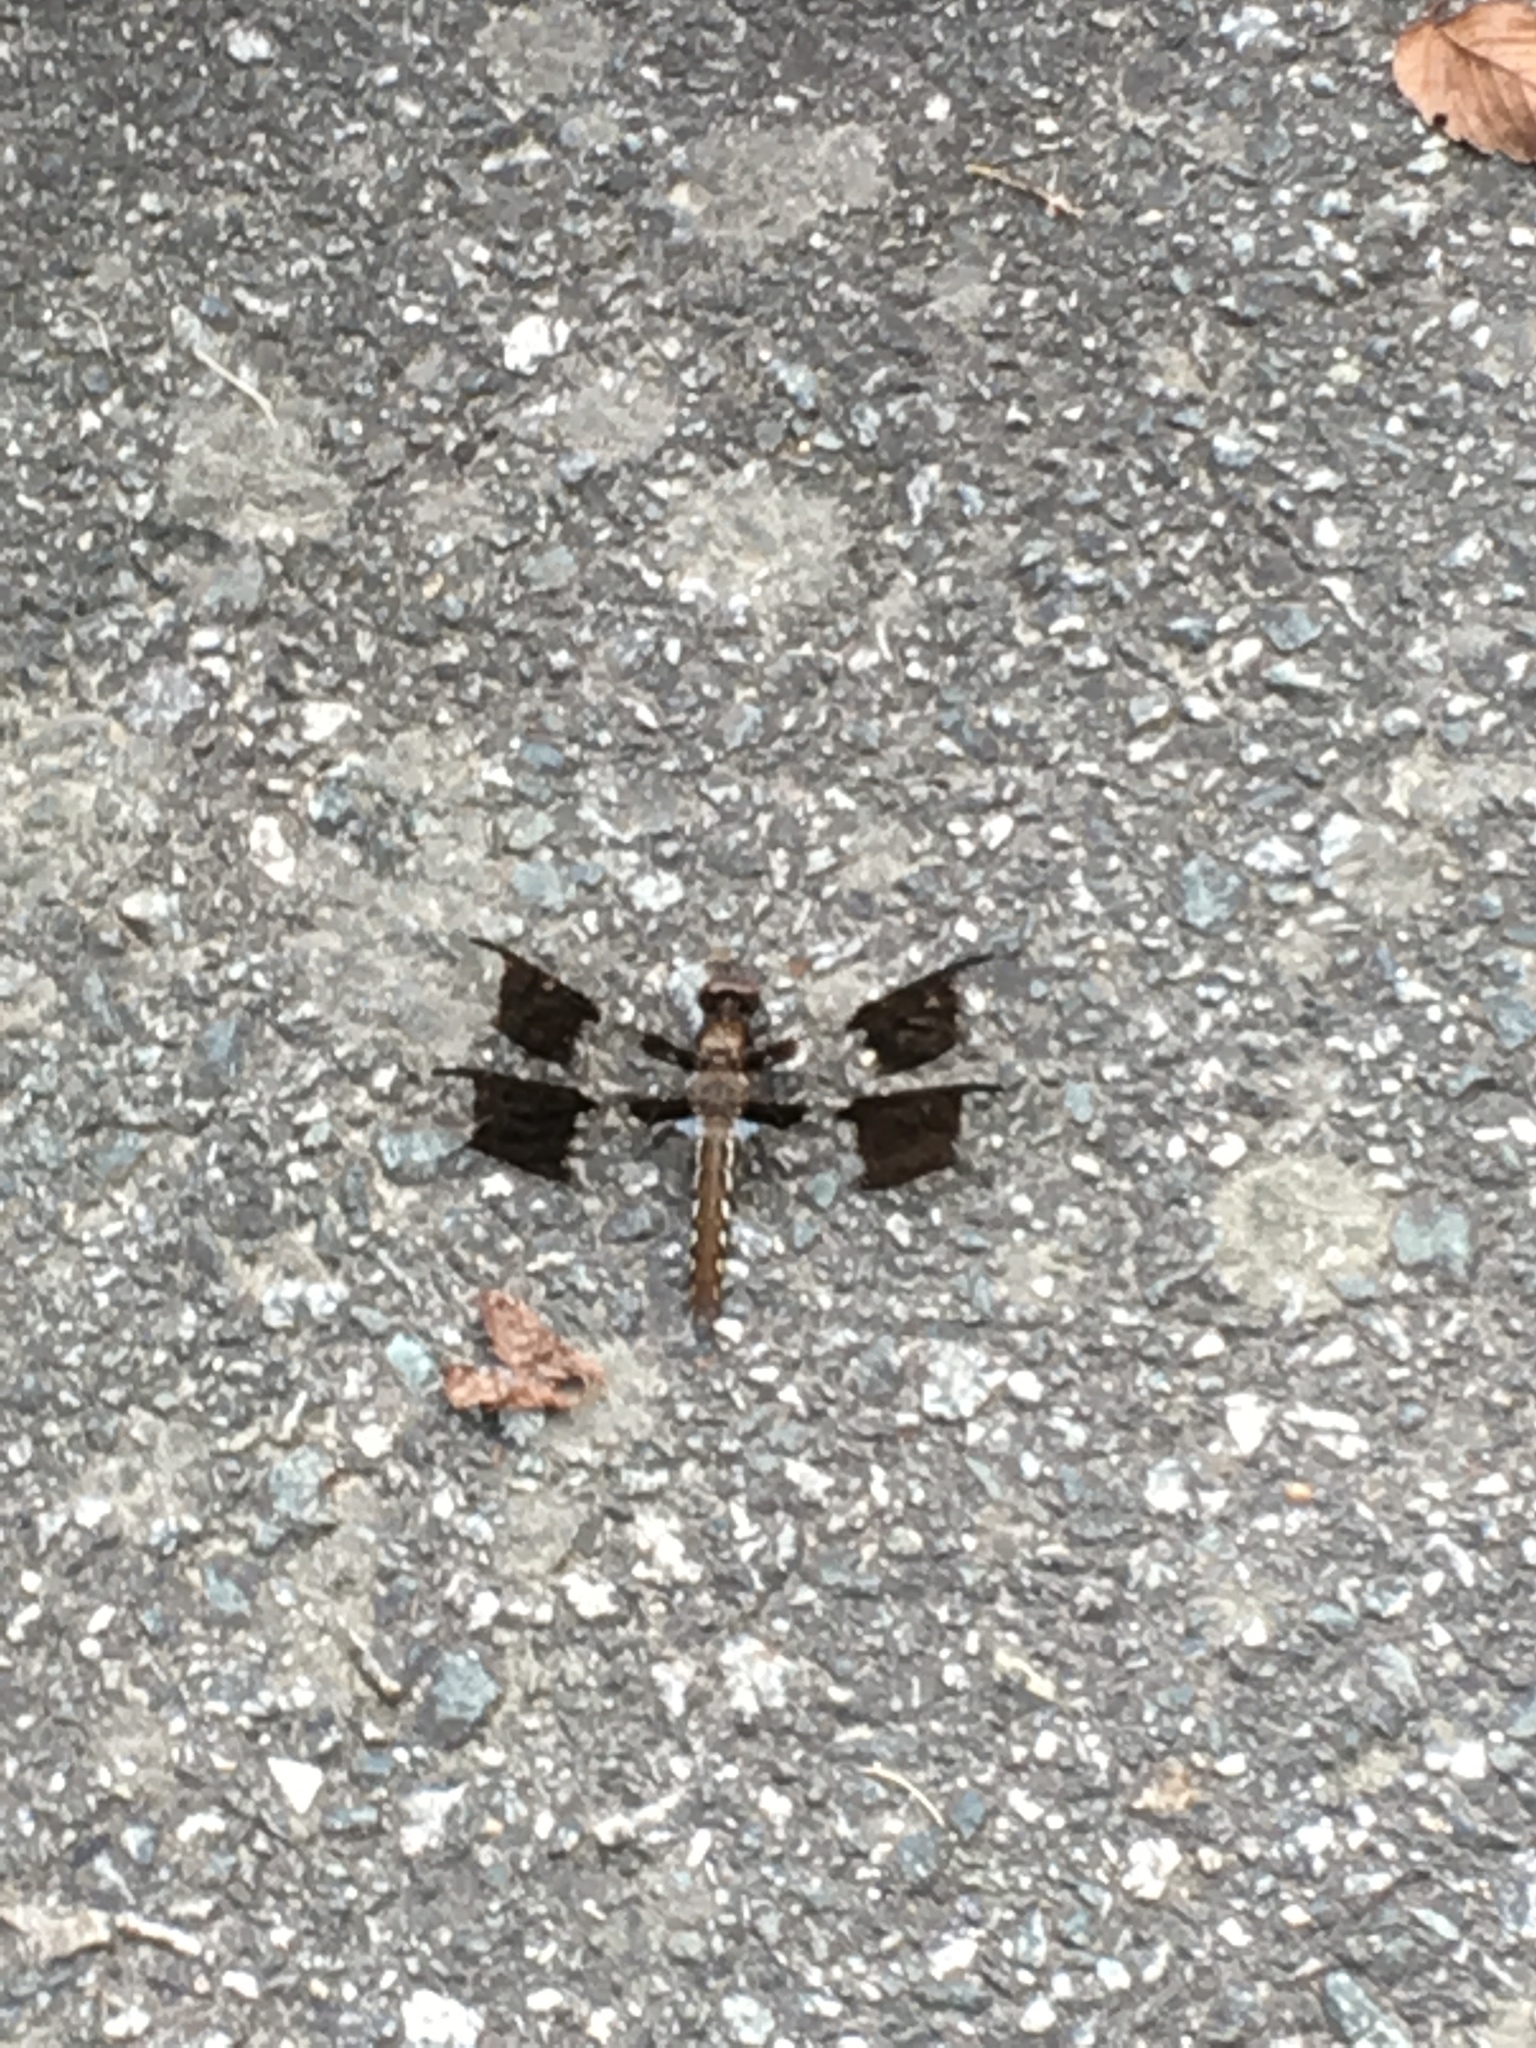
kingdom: Animalia
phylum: Arthropoda
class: Insecta
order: Odonata
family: Libellulidae
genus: Plathemis
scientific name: Plathemis lydia
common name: Common whitetail
